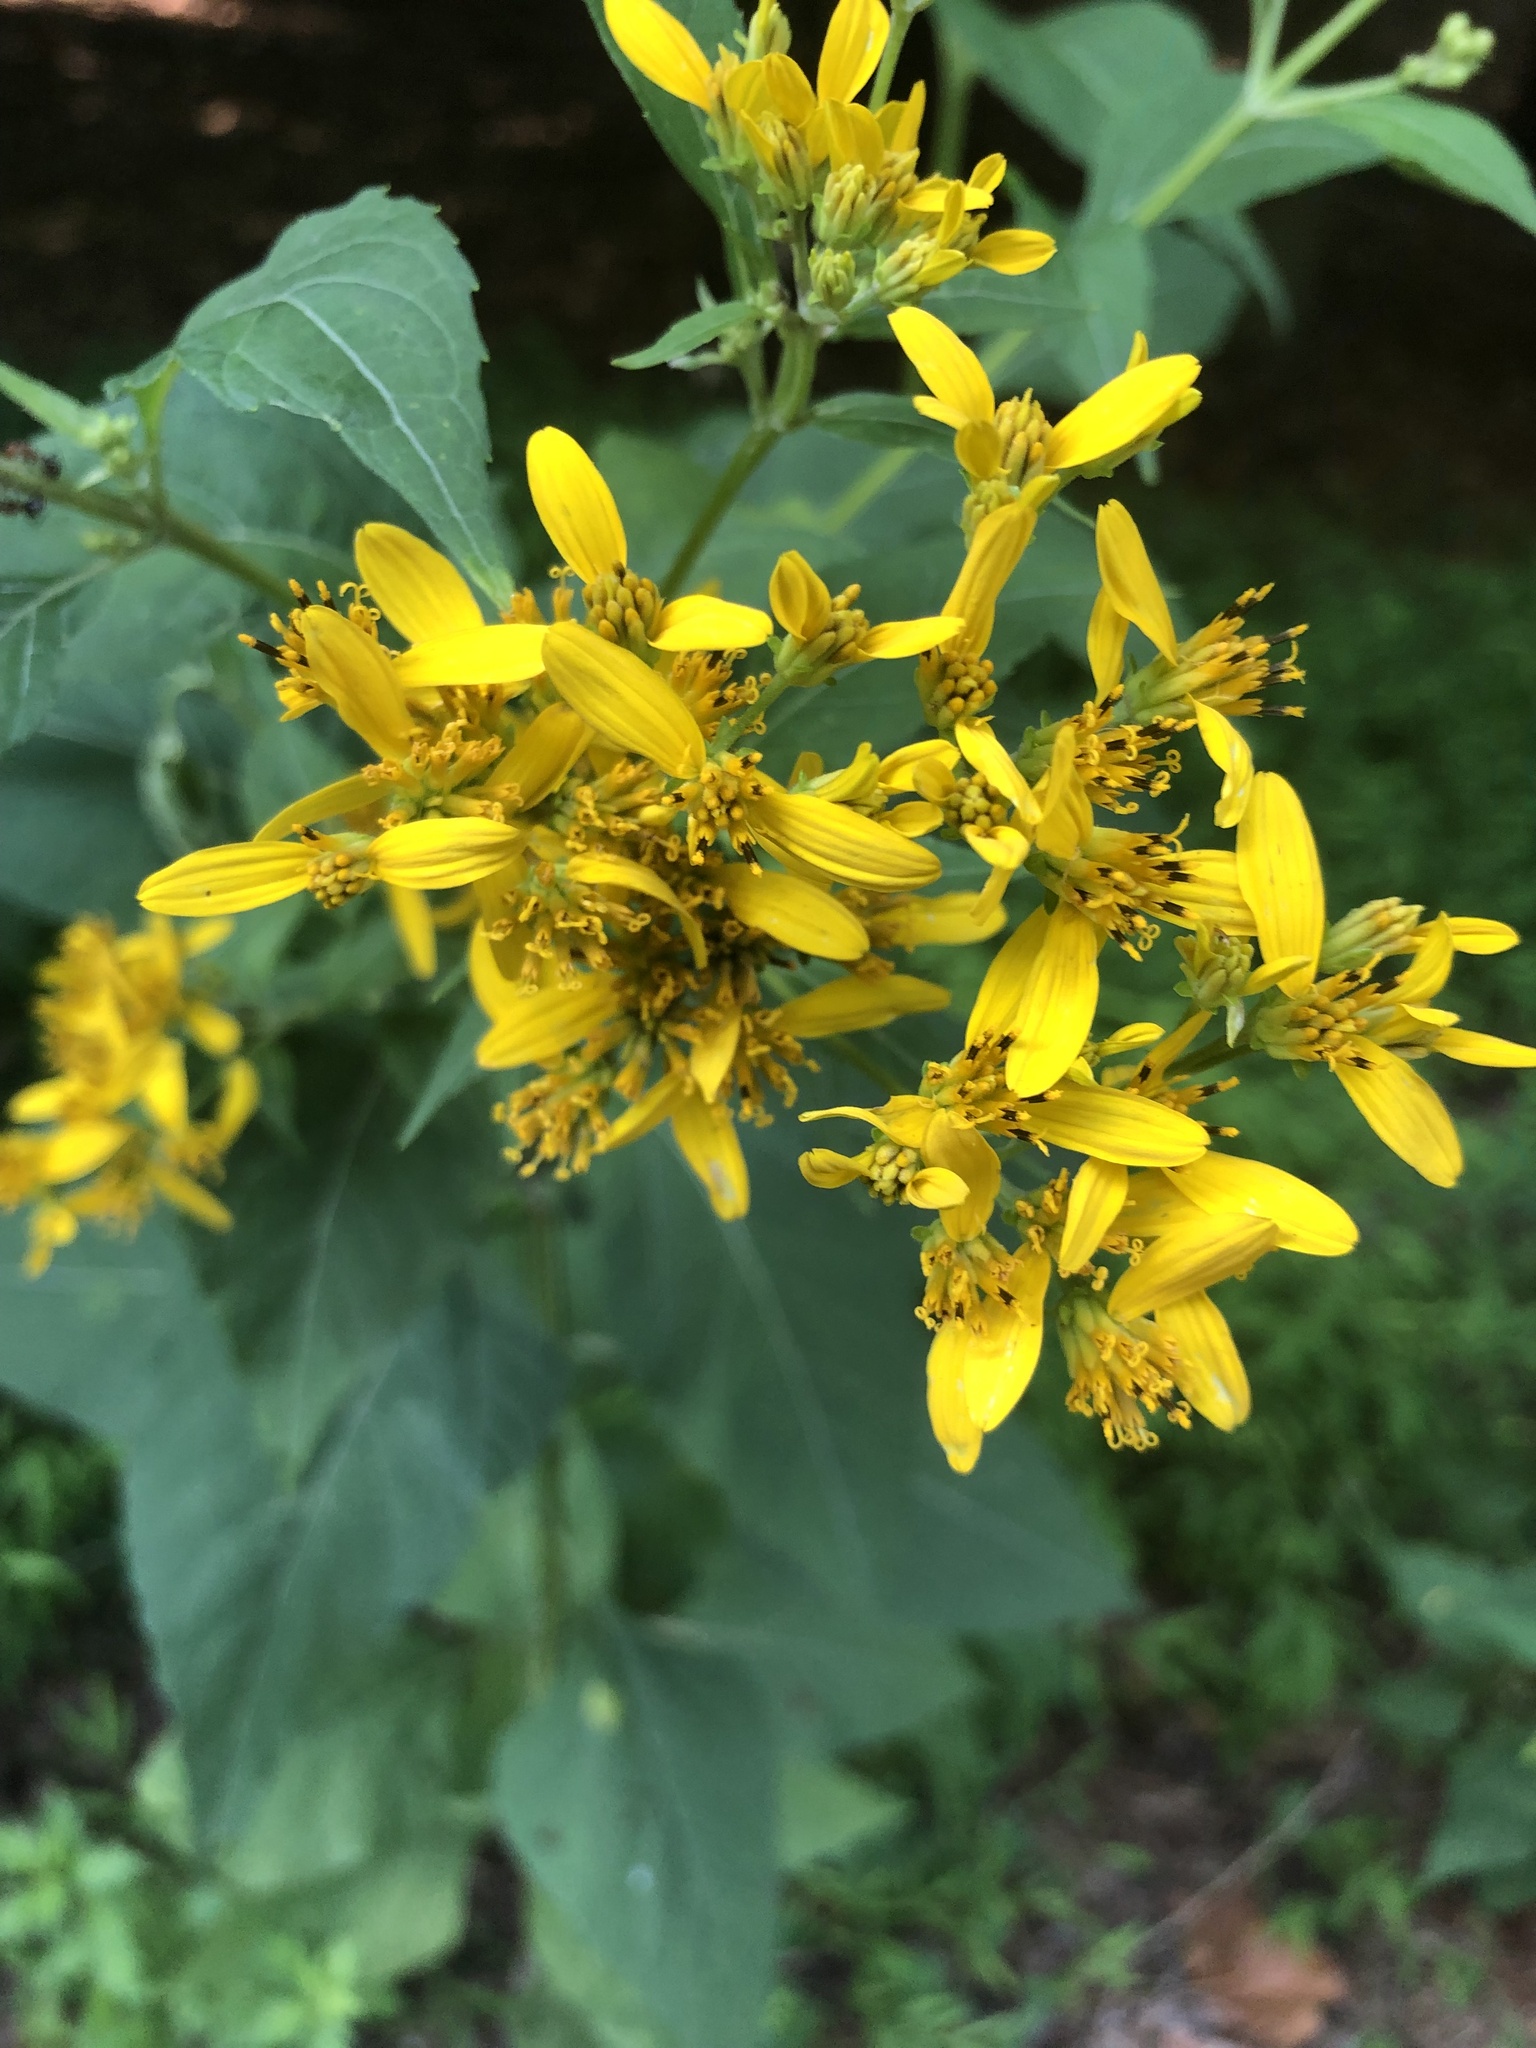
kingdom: Plantae
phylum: Tracheophyta
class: Magnoliopsida
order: Asterales
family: Asteraceae
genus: Verbesina
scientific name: Verbesina occidentalis
